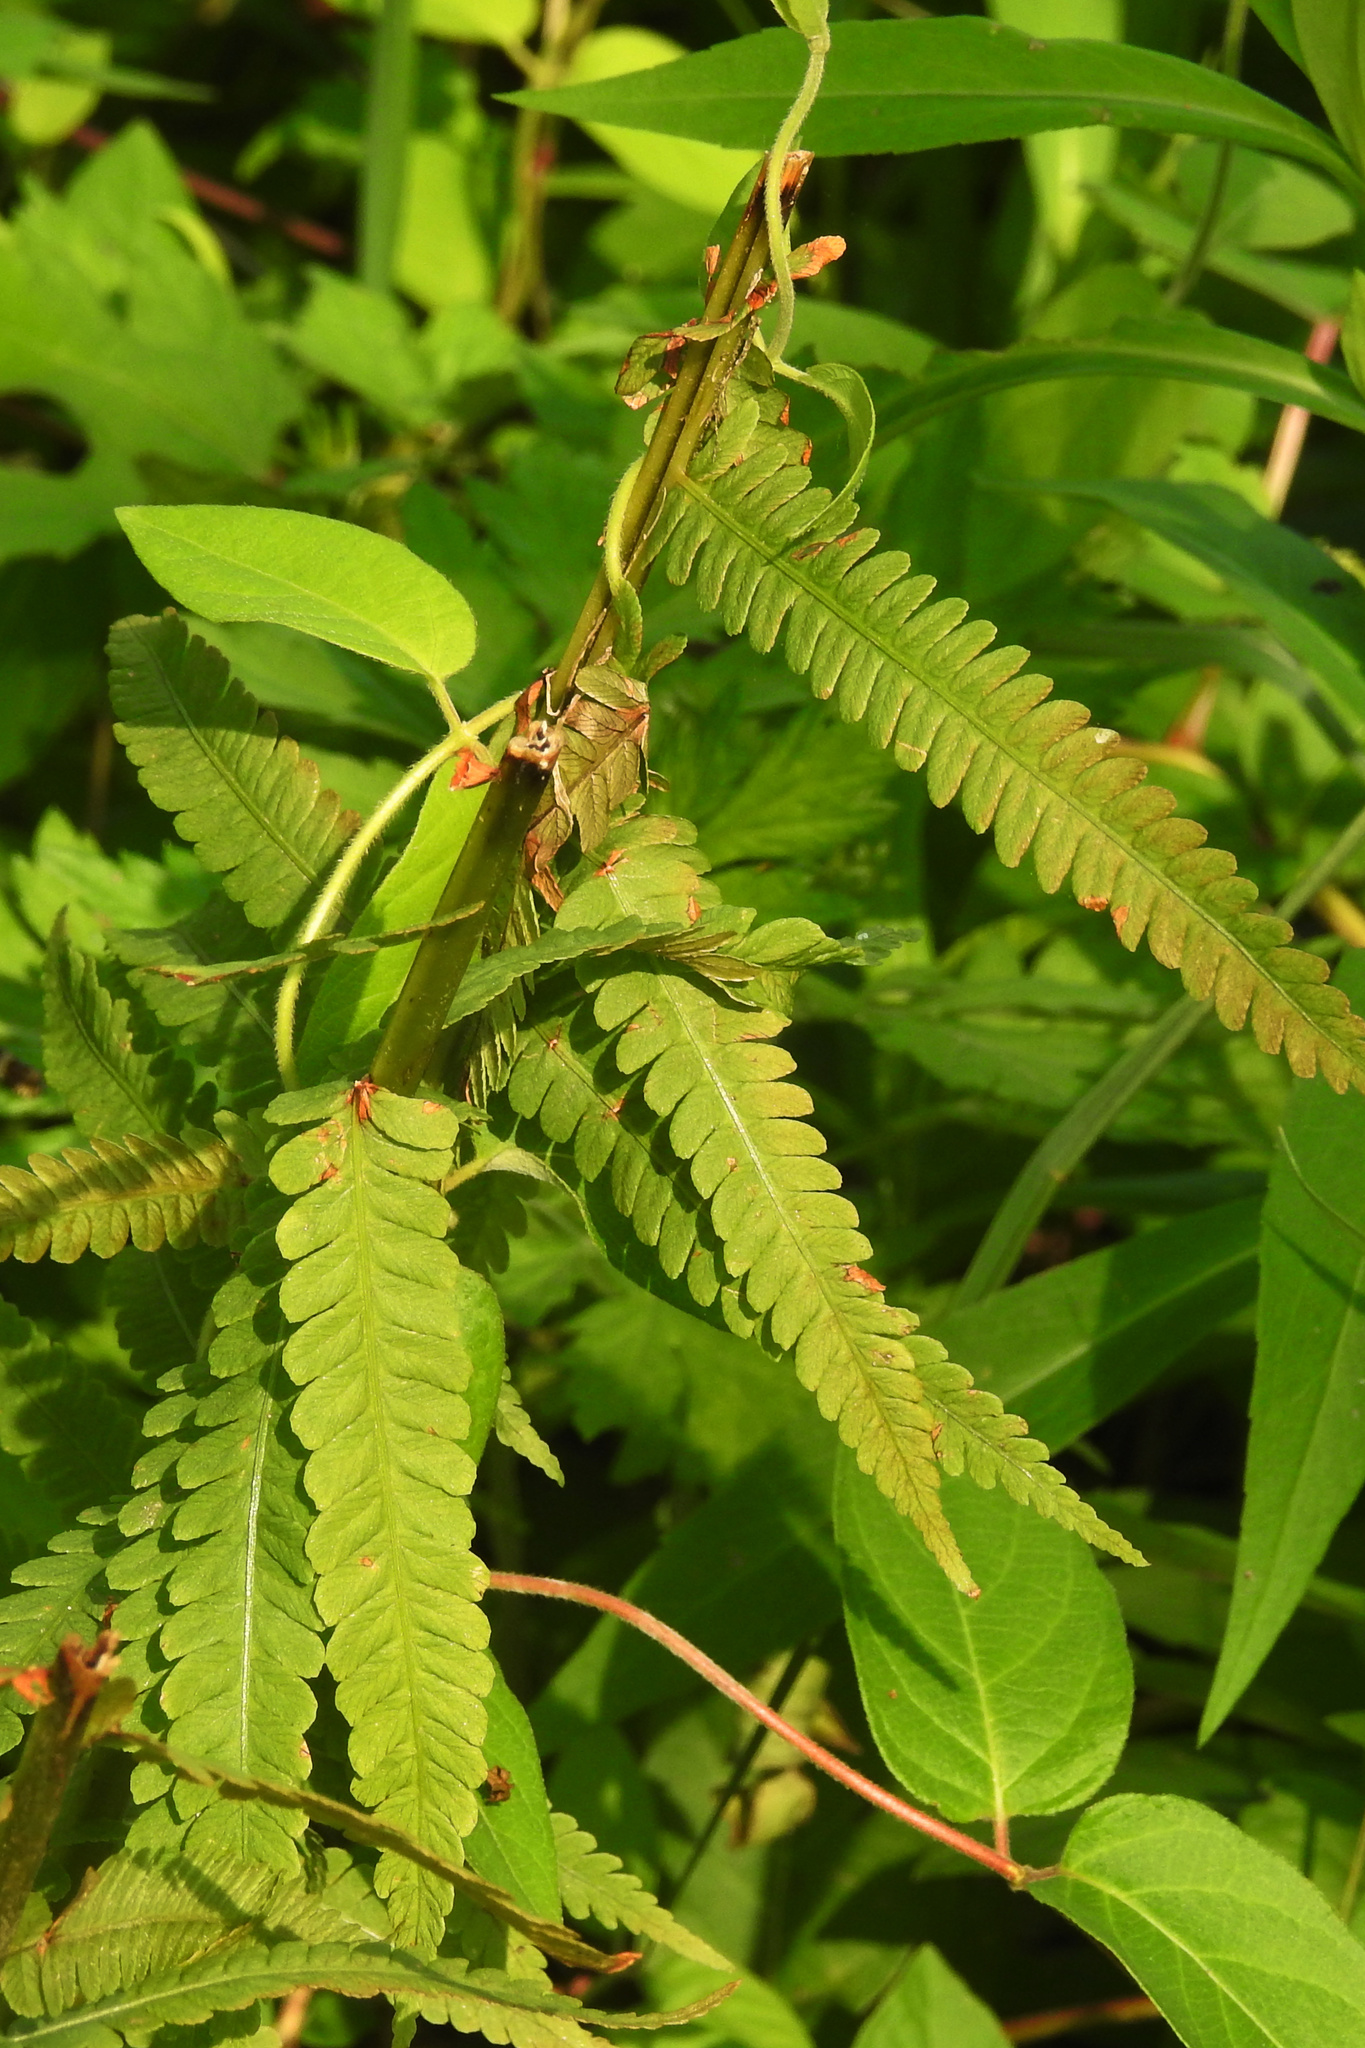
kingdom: Plantae
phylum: Tracheophyta
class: Polypodiopsida
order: Polypodiales
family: Onocleaceae
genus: Matteuccia
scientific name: Matteuccia struthiopteris
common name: Ostrich fern
